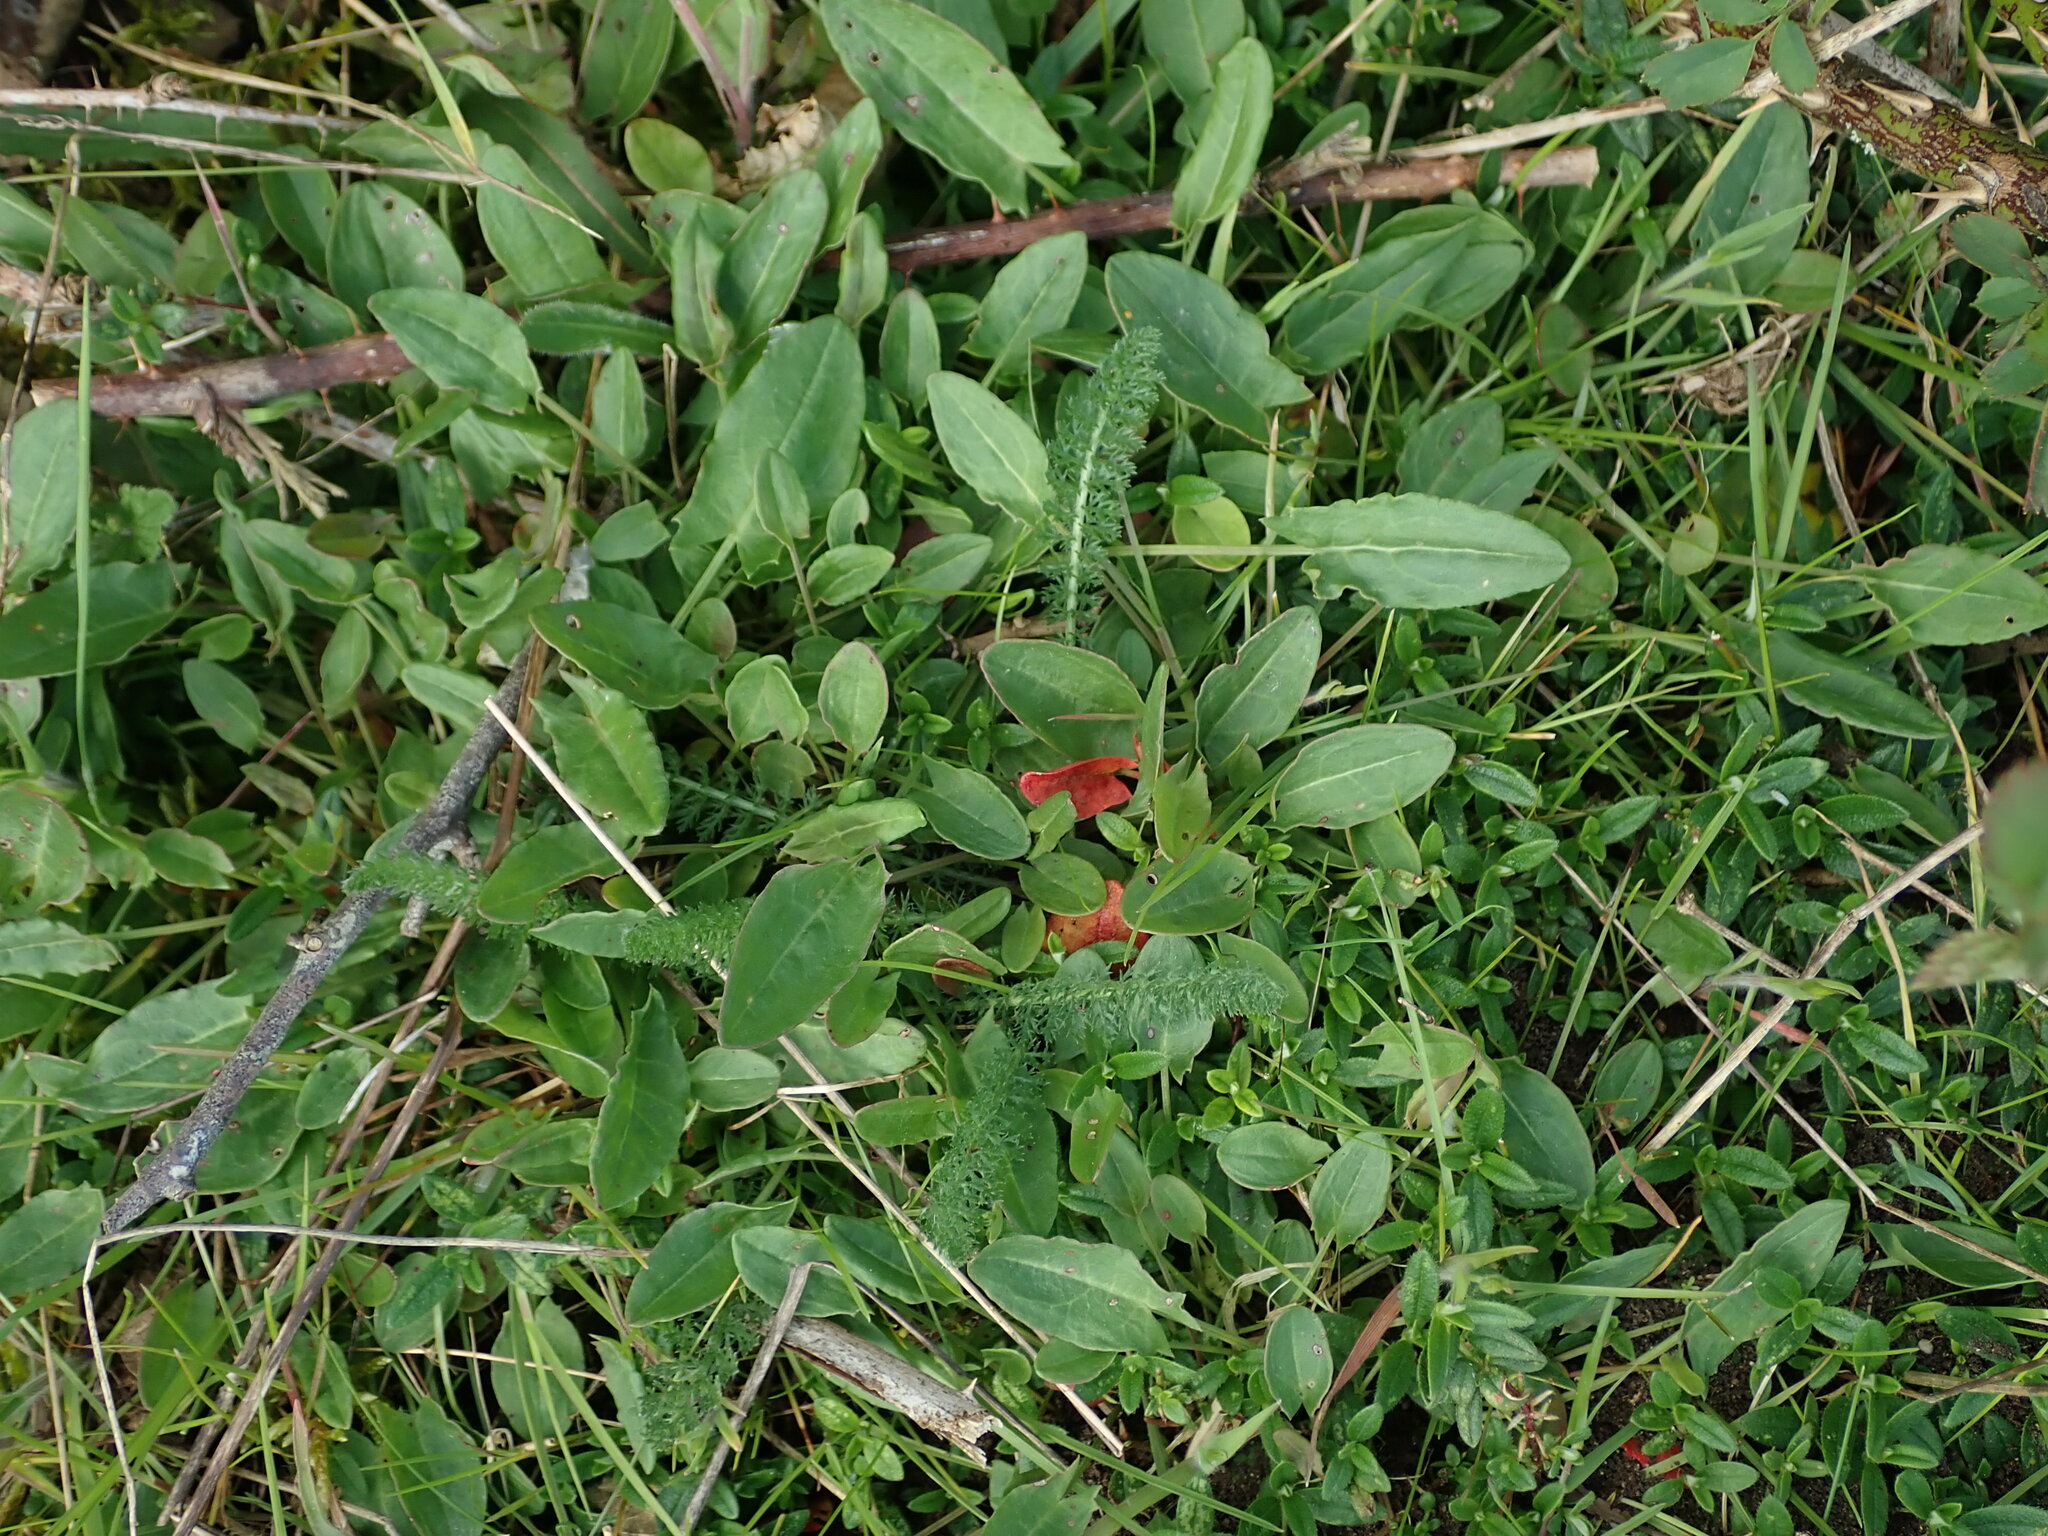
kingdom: Plantae
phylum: Tracheophyta
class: Magnoliopsida
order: Caryophyllales
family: Polygonaceae
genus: Rumex
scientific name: Rumex acetosa
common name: Garden sorrel
